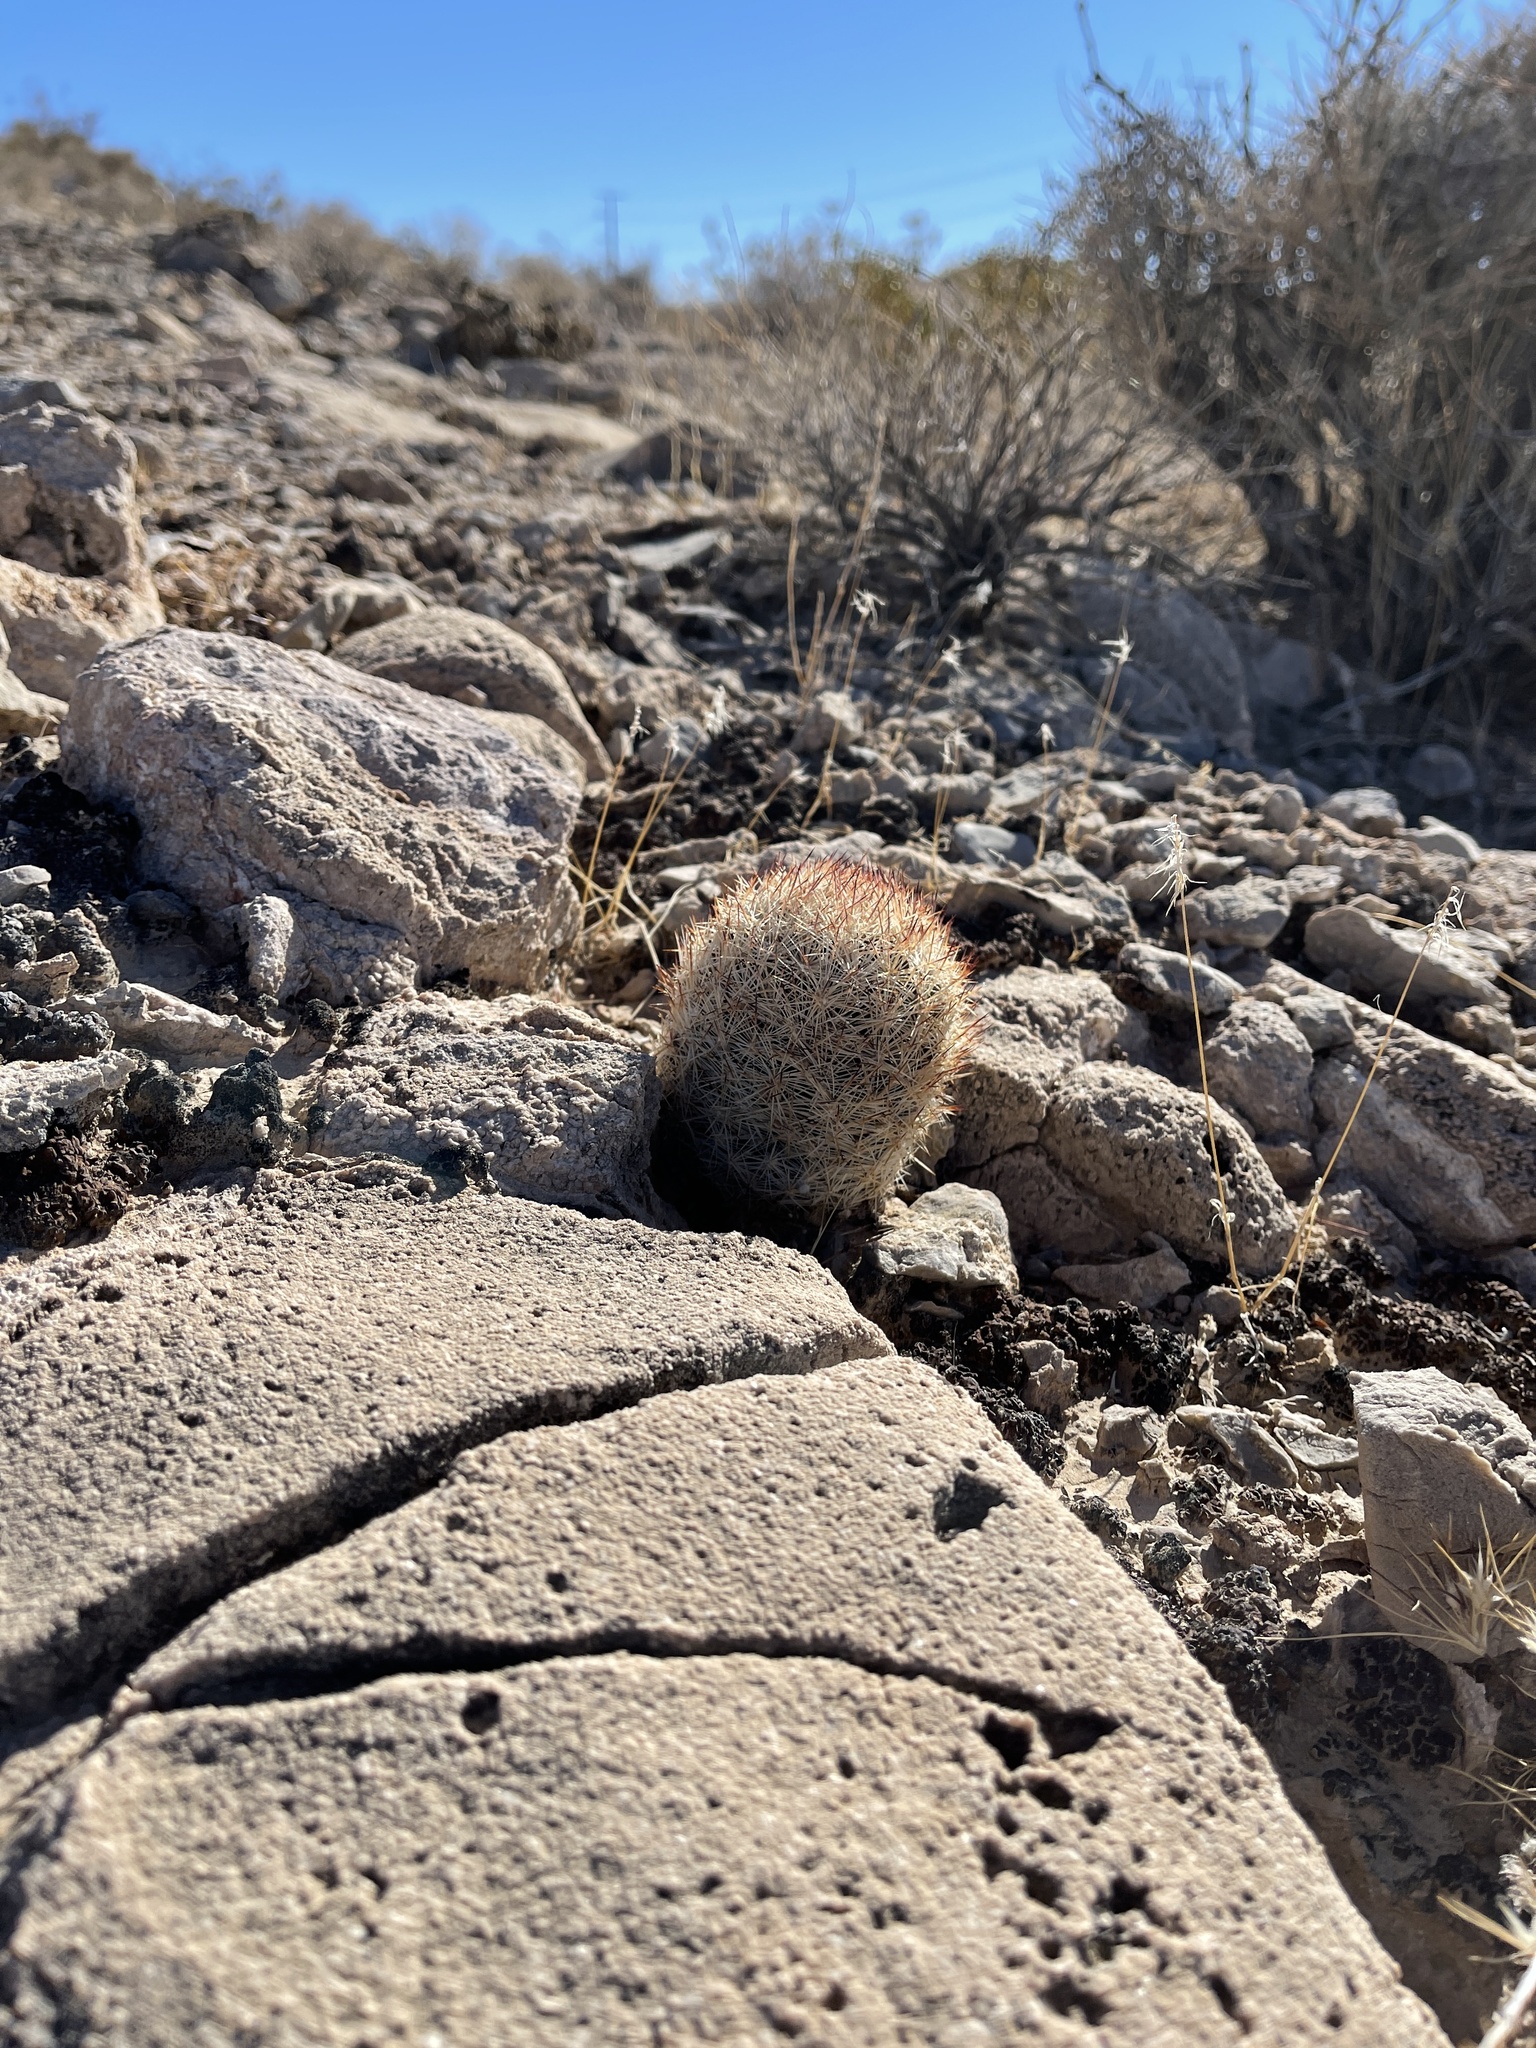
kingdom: Plantae
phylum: Tracheophyta
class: Magnoliopsida
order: Caryophyllales
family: Cactaceae
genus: Pelecyphora
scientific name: Pelecyphora dasyacantha
